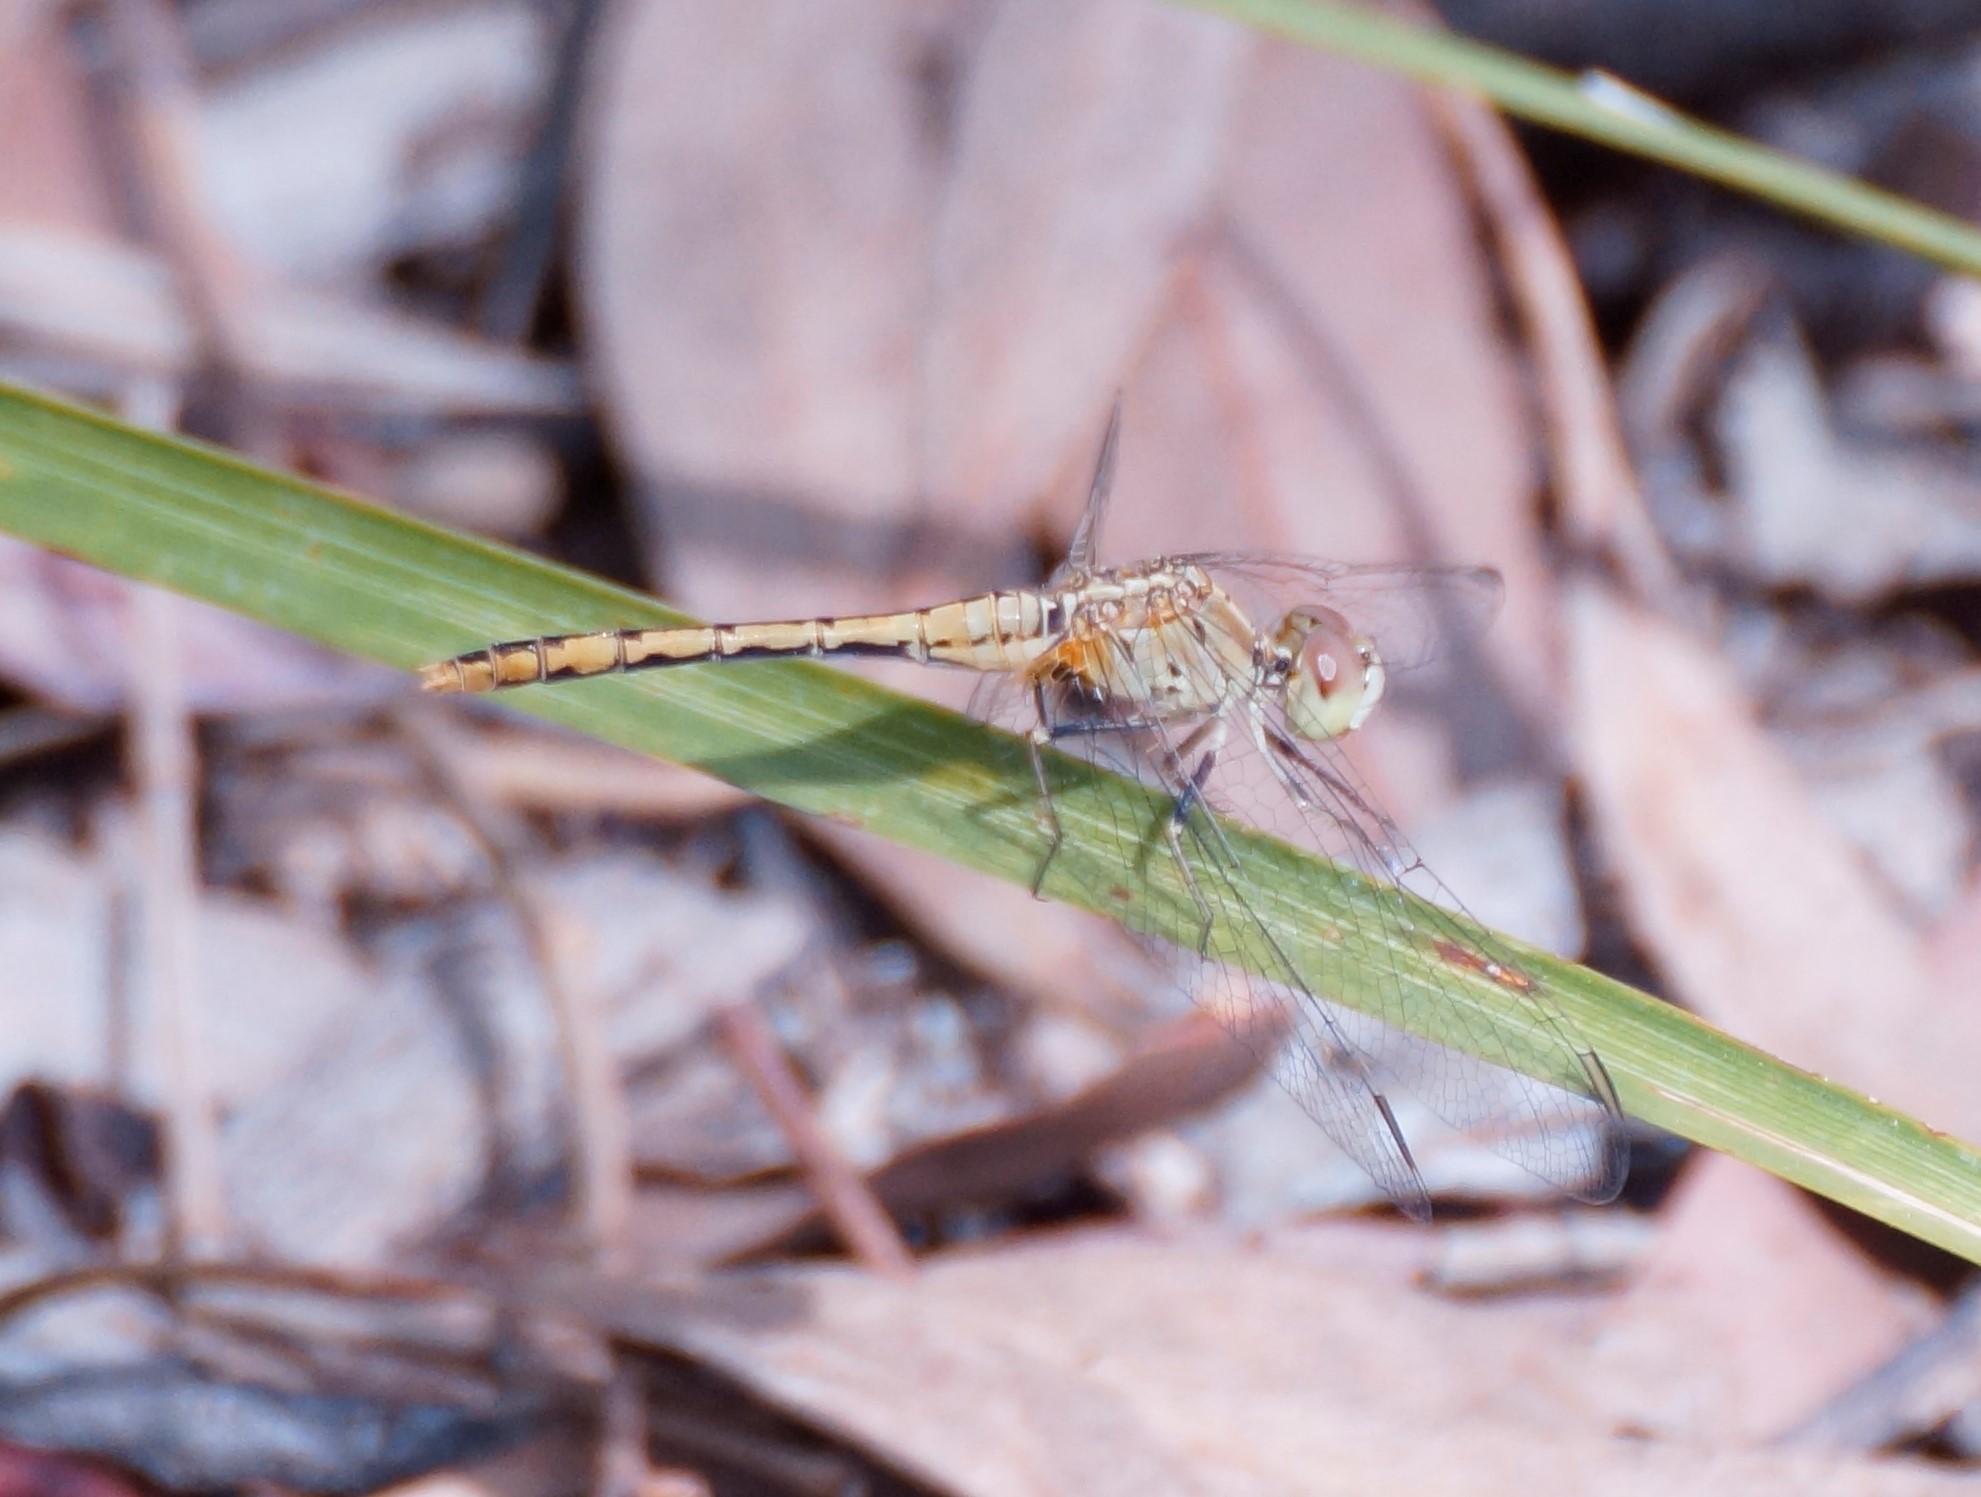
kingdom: Animalia
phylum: Arthropoda
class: Insecta
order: Odonata
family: Libellulidae
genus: Diplacodes
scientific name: Diplacodes bipunctata
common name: Red percher dragonfly
